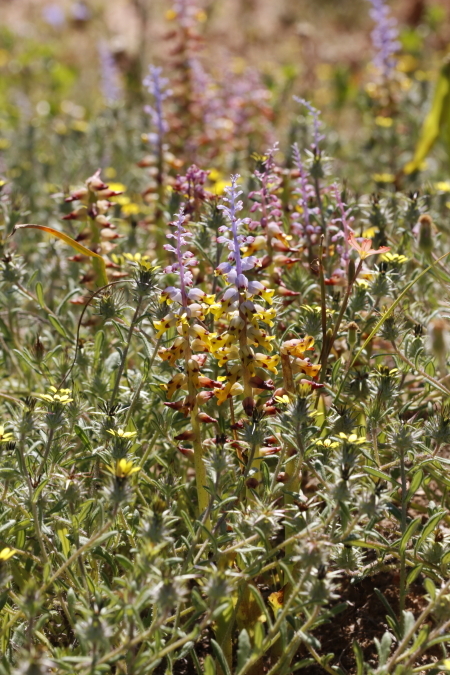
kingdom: Plantae
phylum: Tracheophyta
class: Liliopsida
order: Asparagales
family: Asparagaceae
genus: Lachenalia
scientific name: Lachenalia mutabilis
